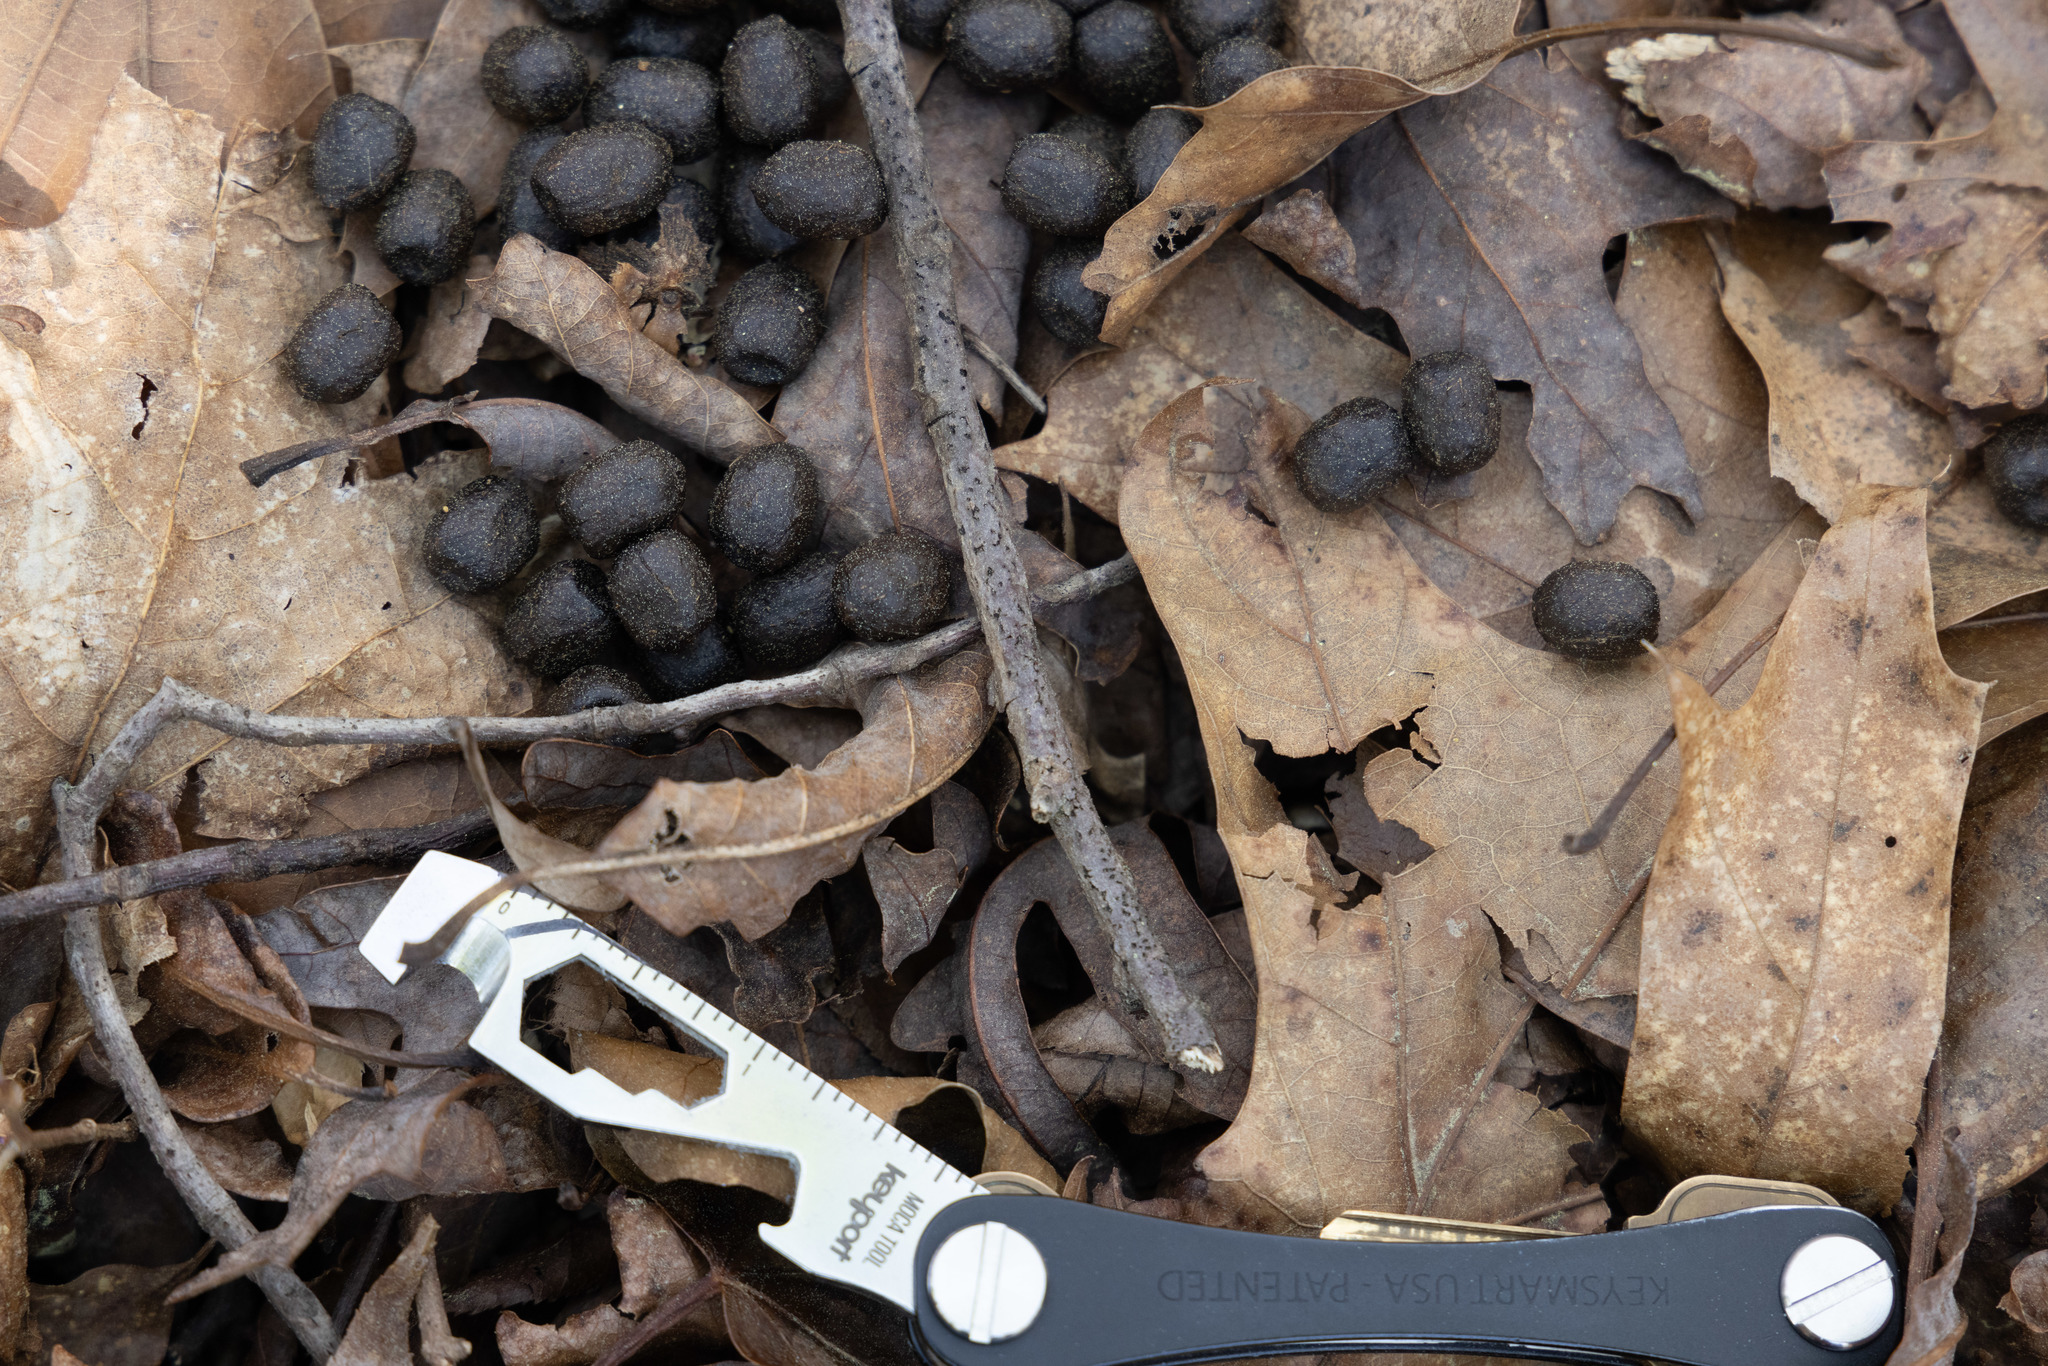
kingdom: Animalia
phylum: Chordata
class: Mammalia
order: Artiodactyla
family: Cervidae
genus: Odocoileus
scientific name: Odocoileus virginianus
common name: White-tailed deer
